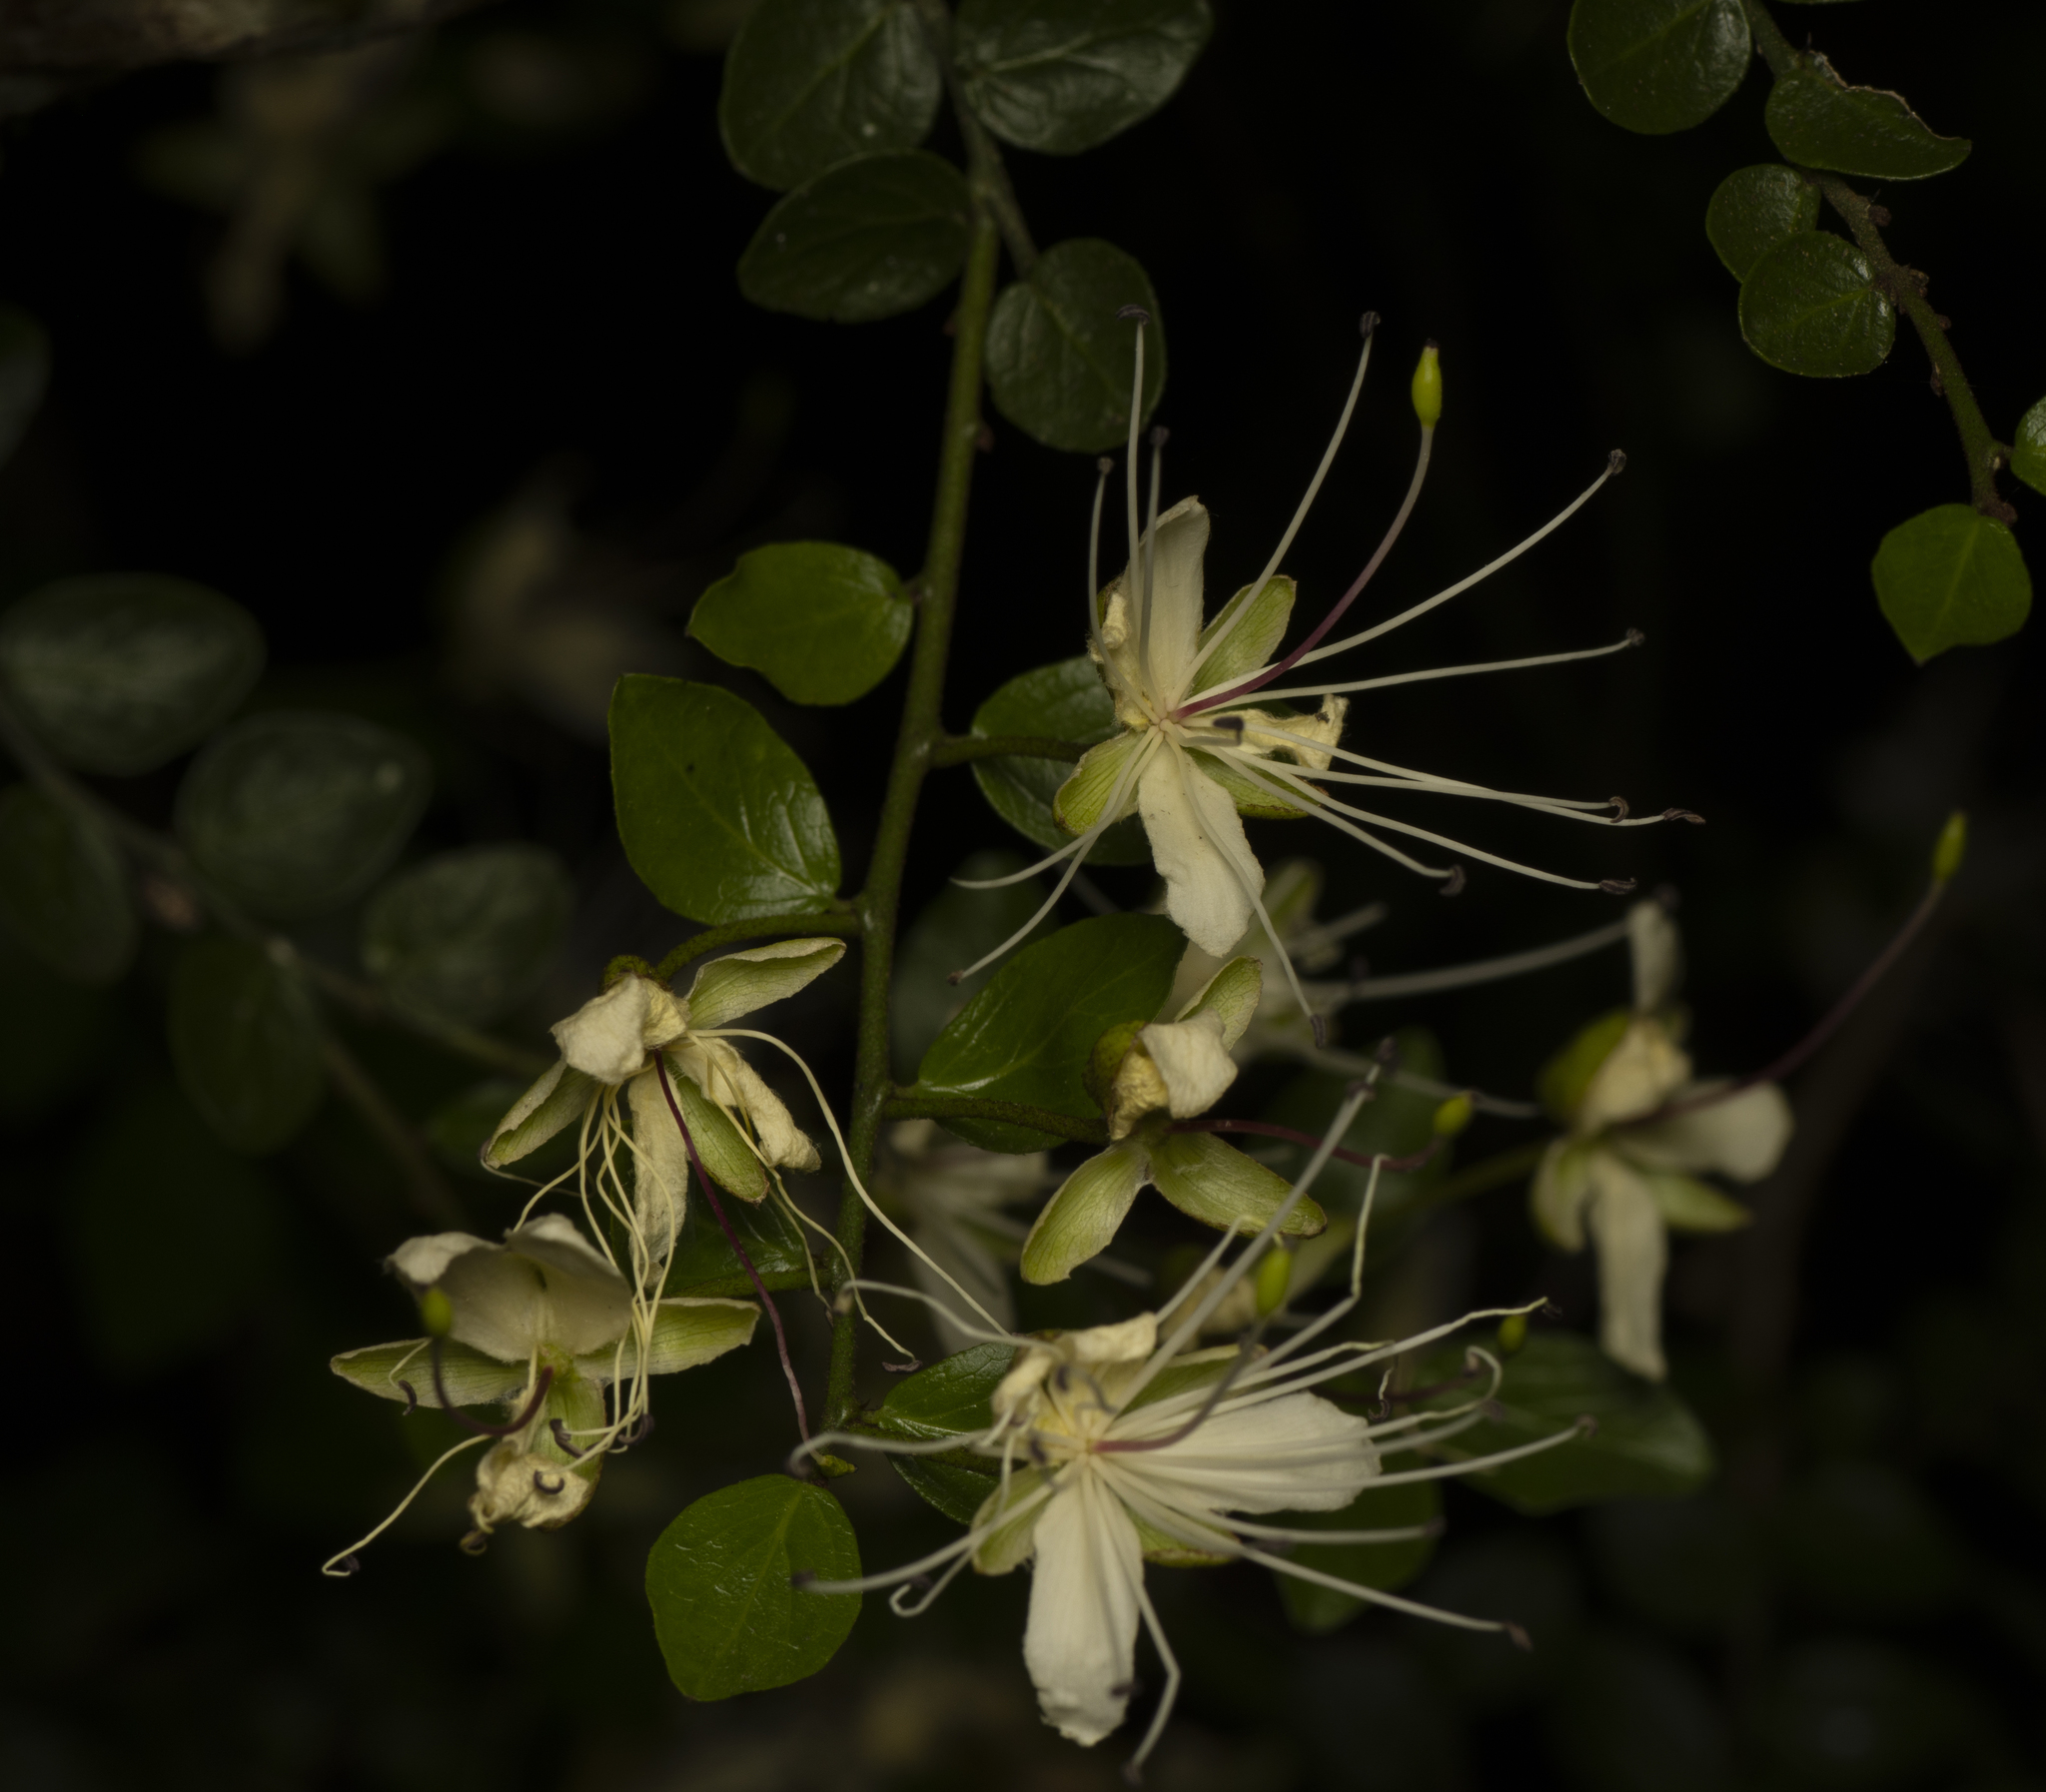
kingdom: Plantae
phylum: Tracheophyta
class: Magnoliopsida
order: Brassicales
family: Capparaceae
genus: Capparis
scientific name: Capparis sarmentosa
